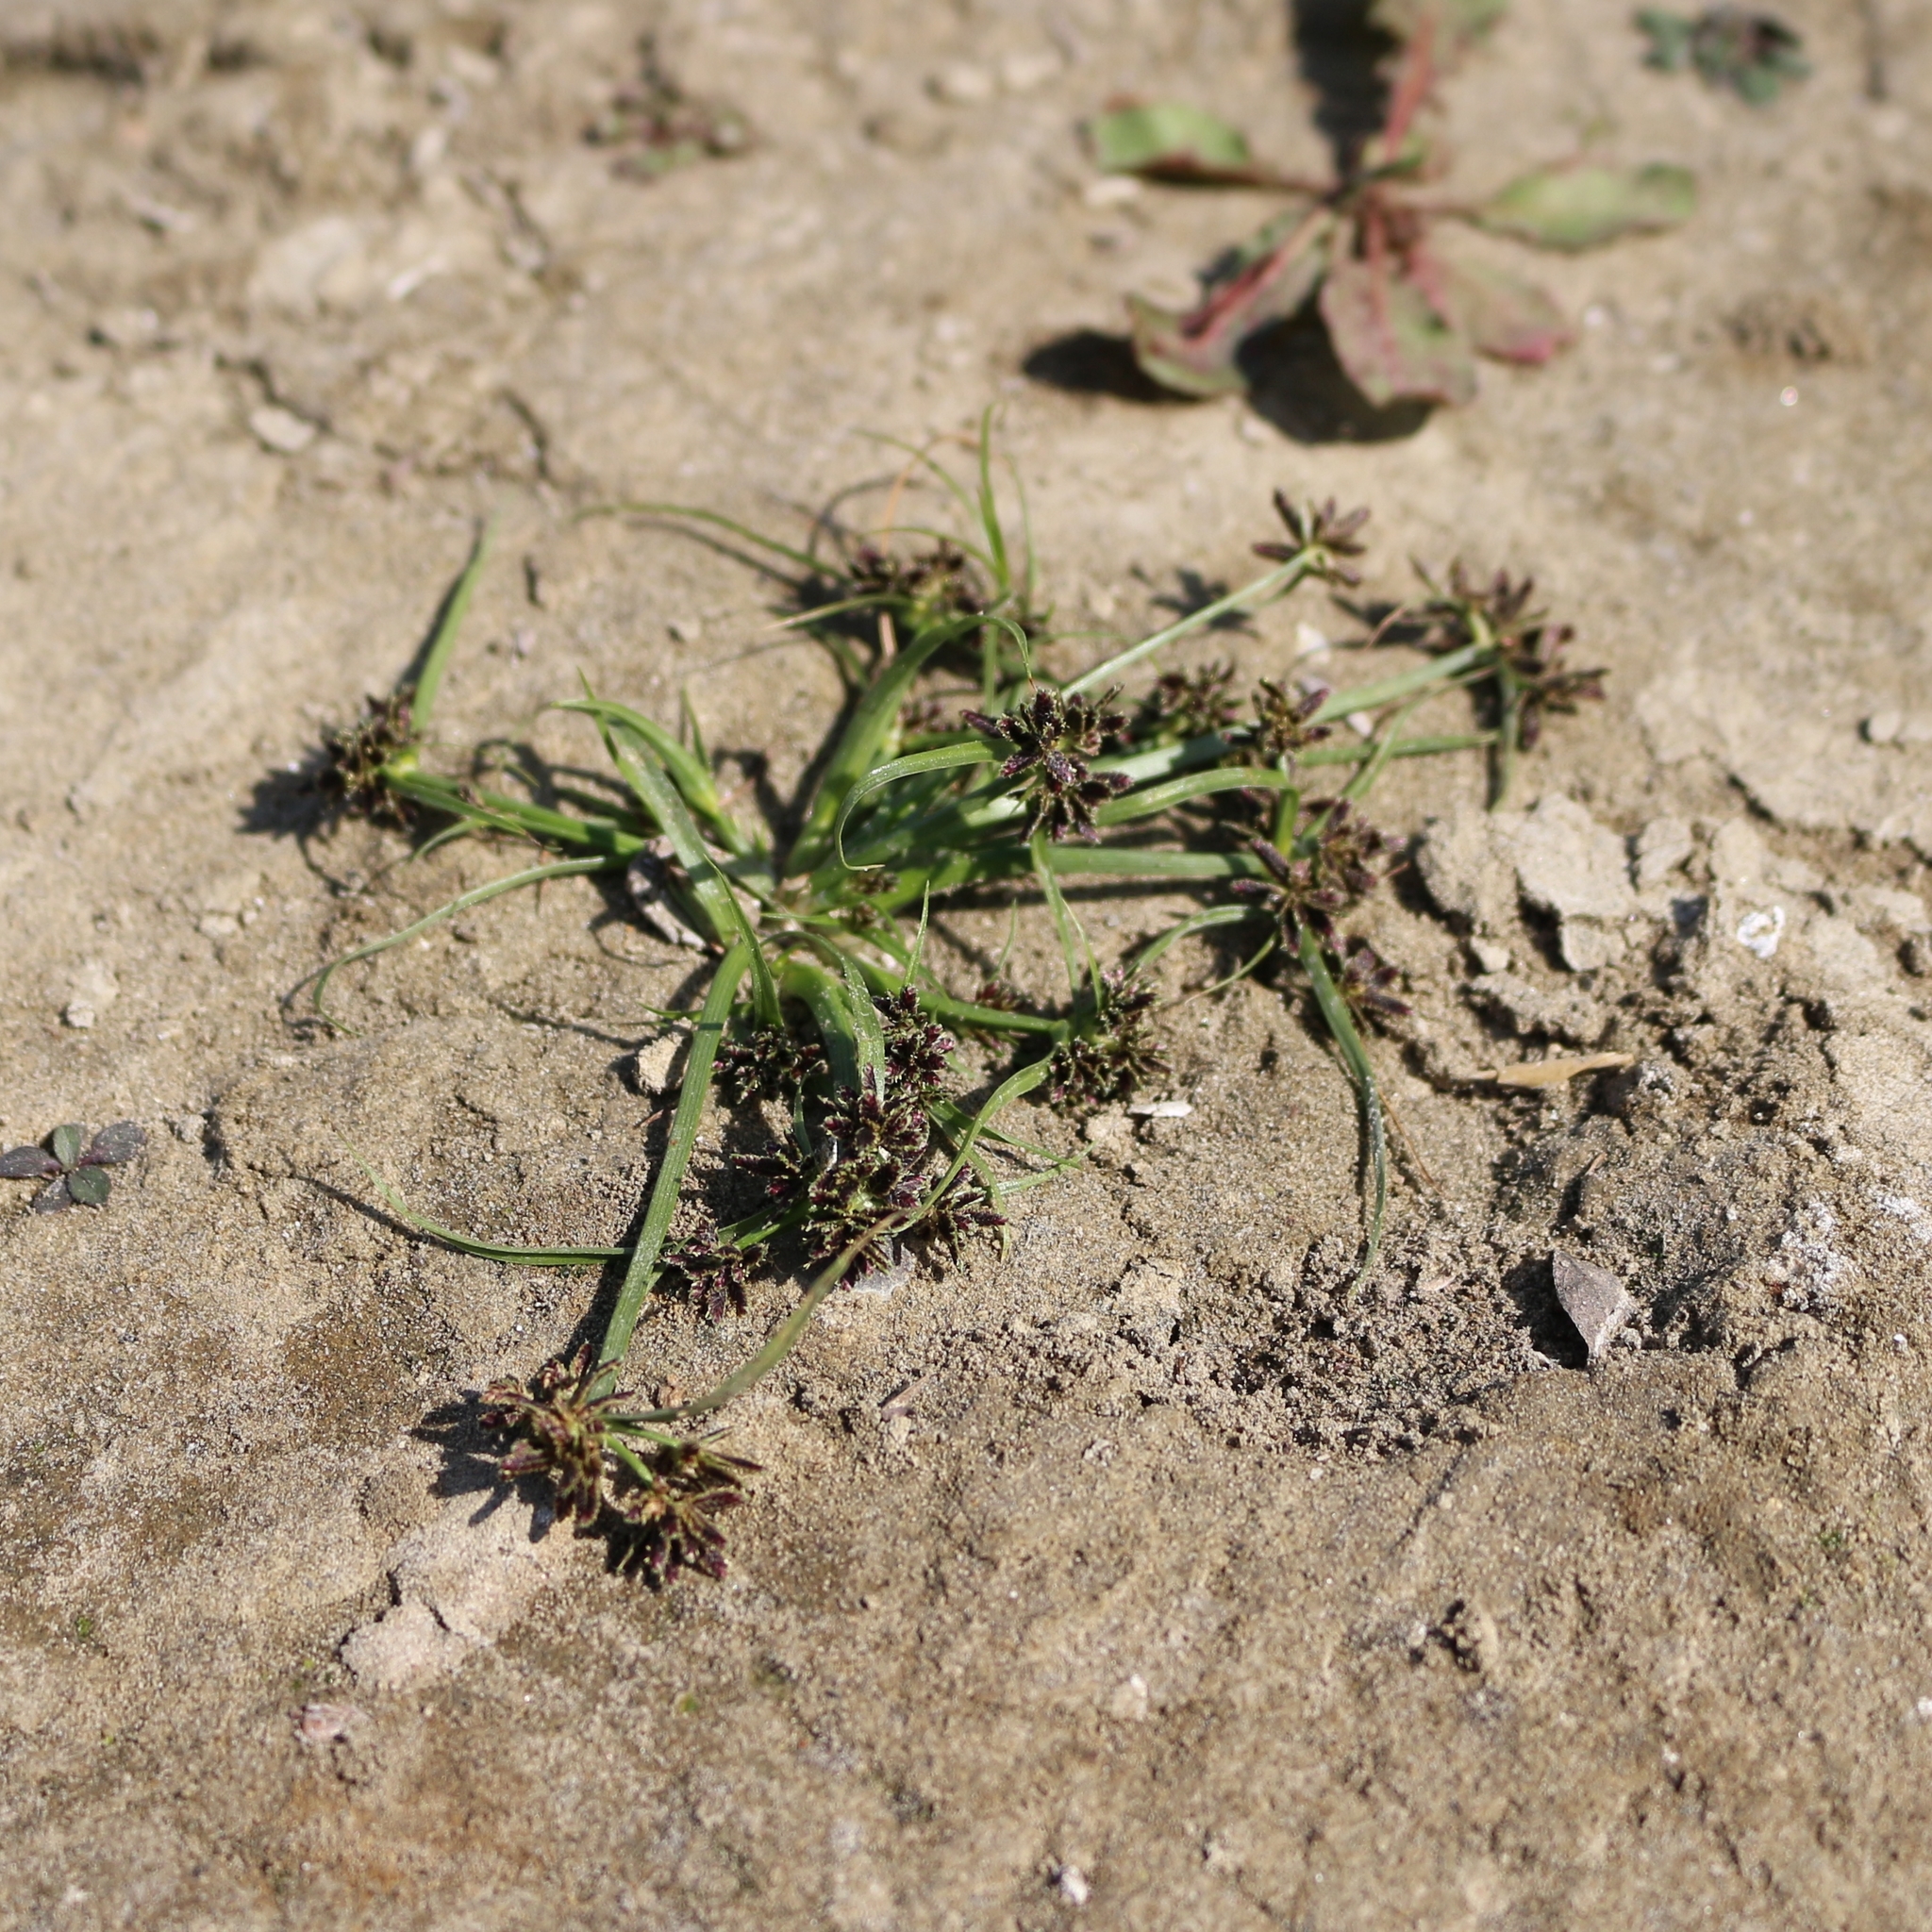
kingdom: Plantae
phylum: Tracheophyta
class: Liliopsida
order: Poales
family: Cyperaceae
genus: Cyperus
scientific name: Cyperus fuscus
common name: Brown galingale
